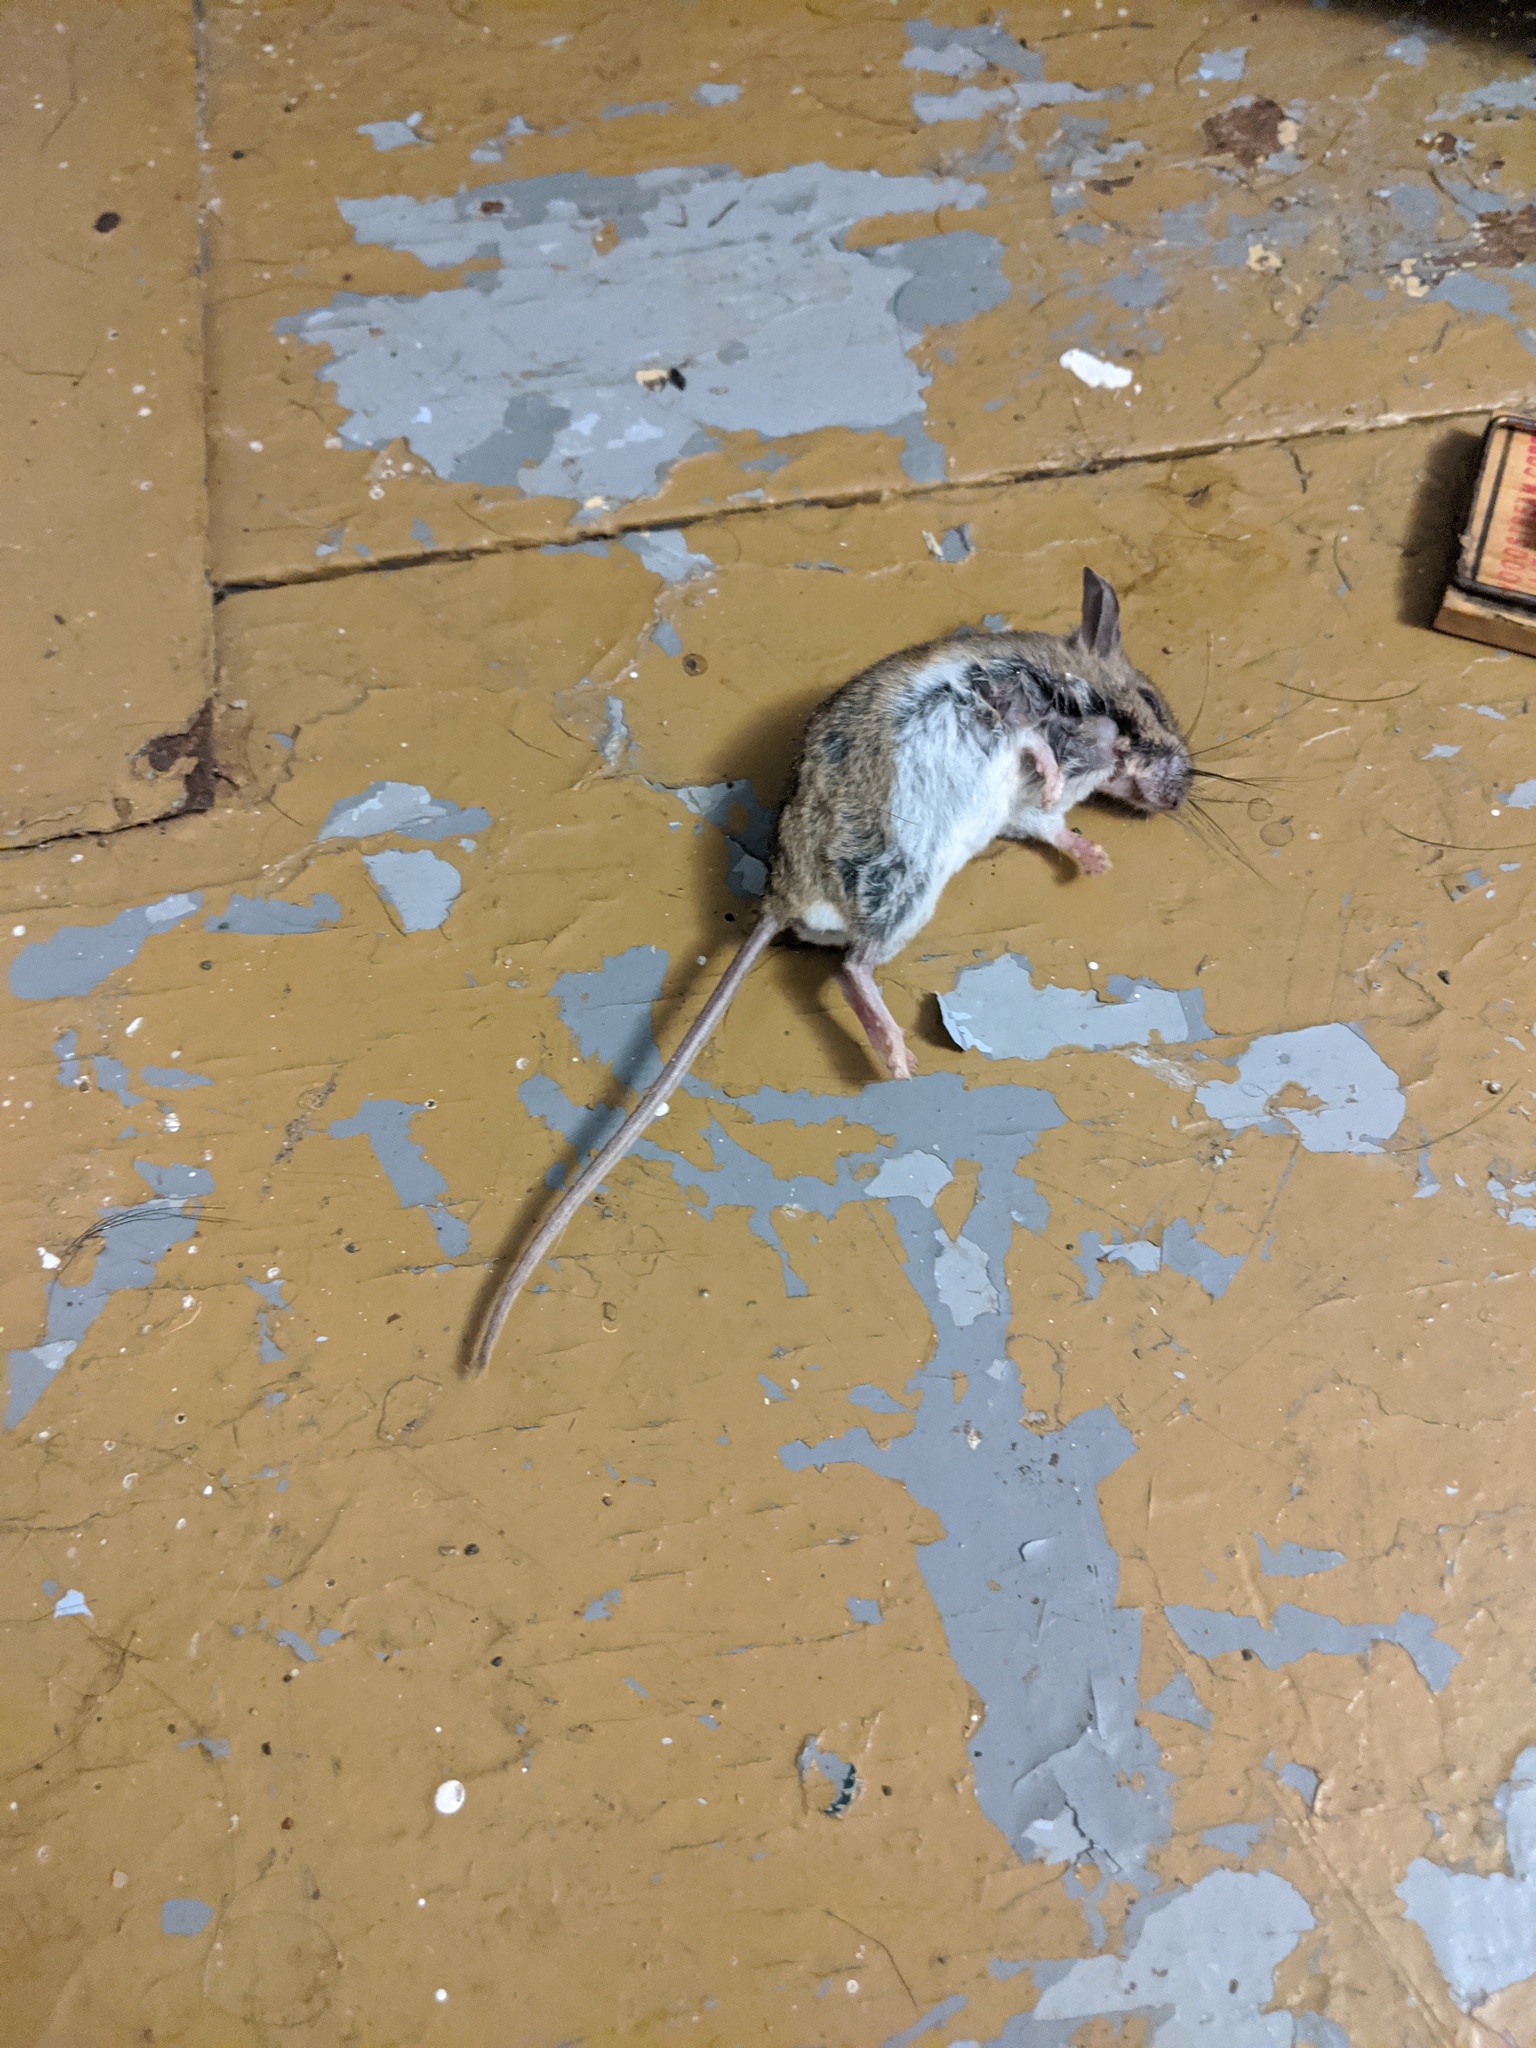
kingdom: Animalia
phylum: Chordata
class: Mammalia
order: Rodentia
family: Cricetidae
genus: Peromyscus
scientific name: Peromyscus maniculatus
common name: Deer mouse
